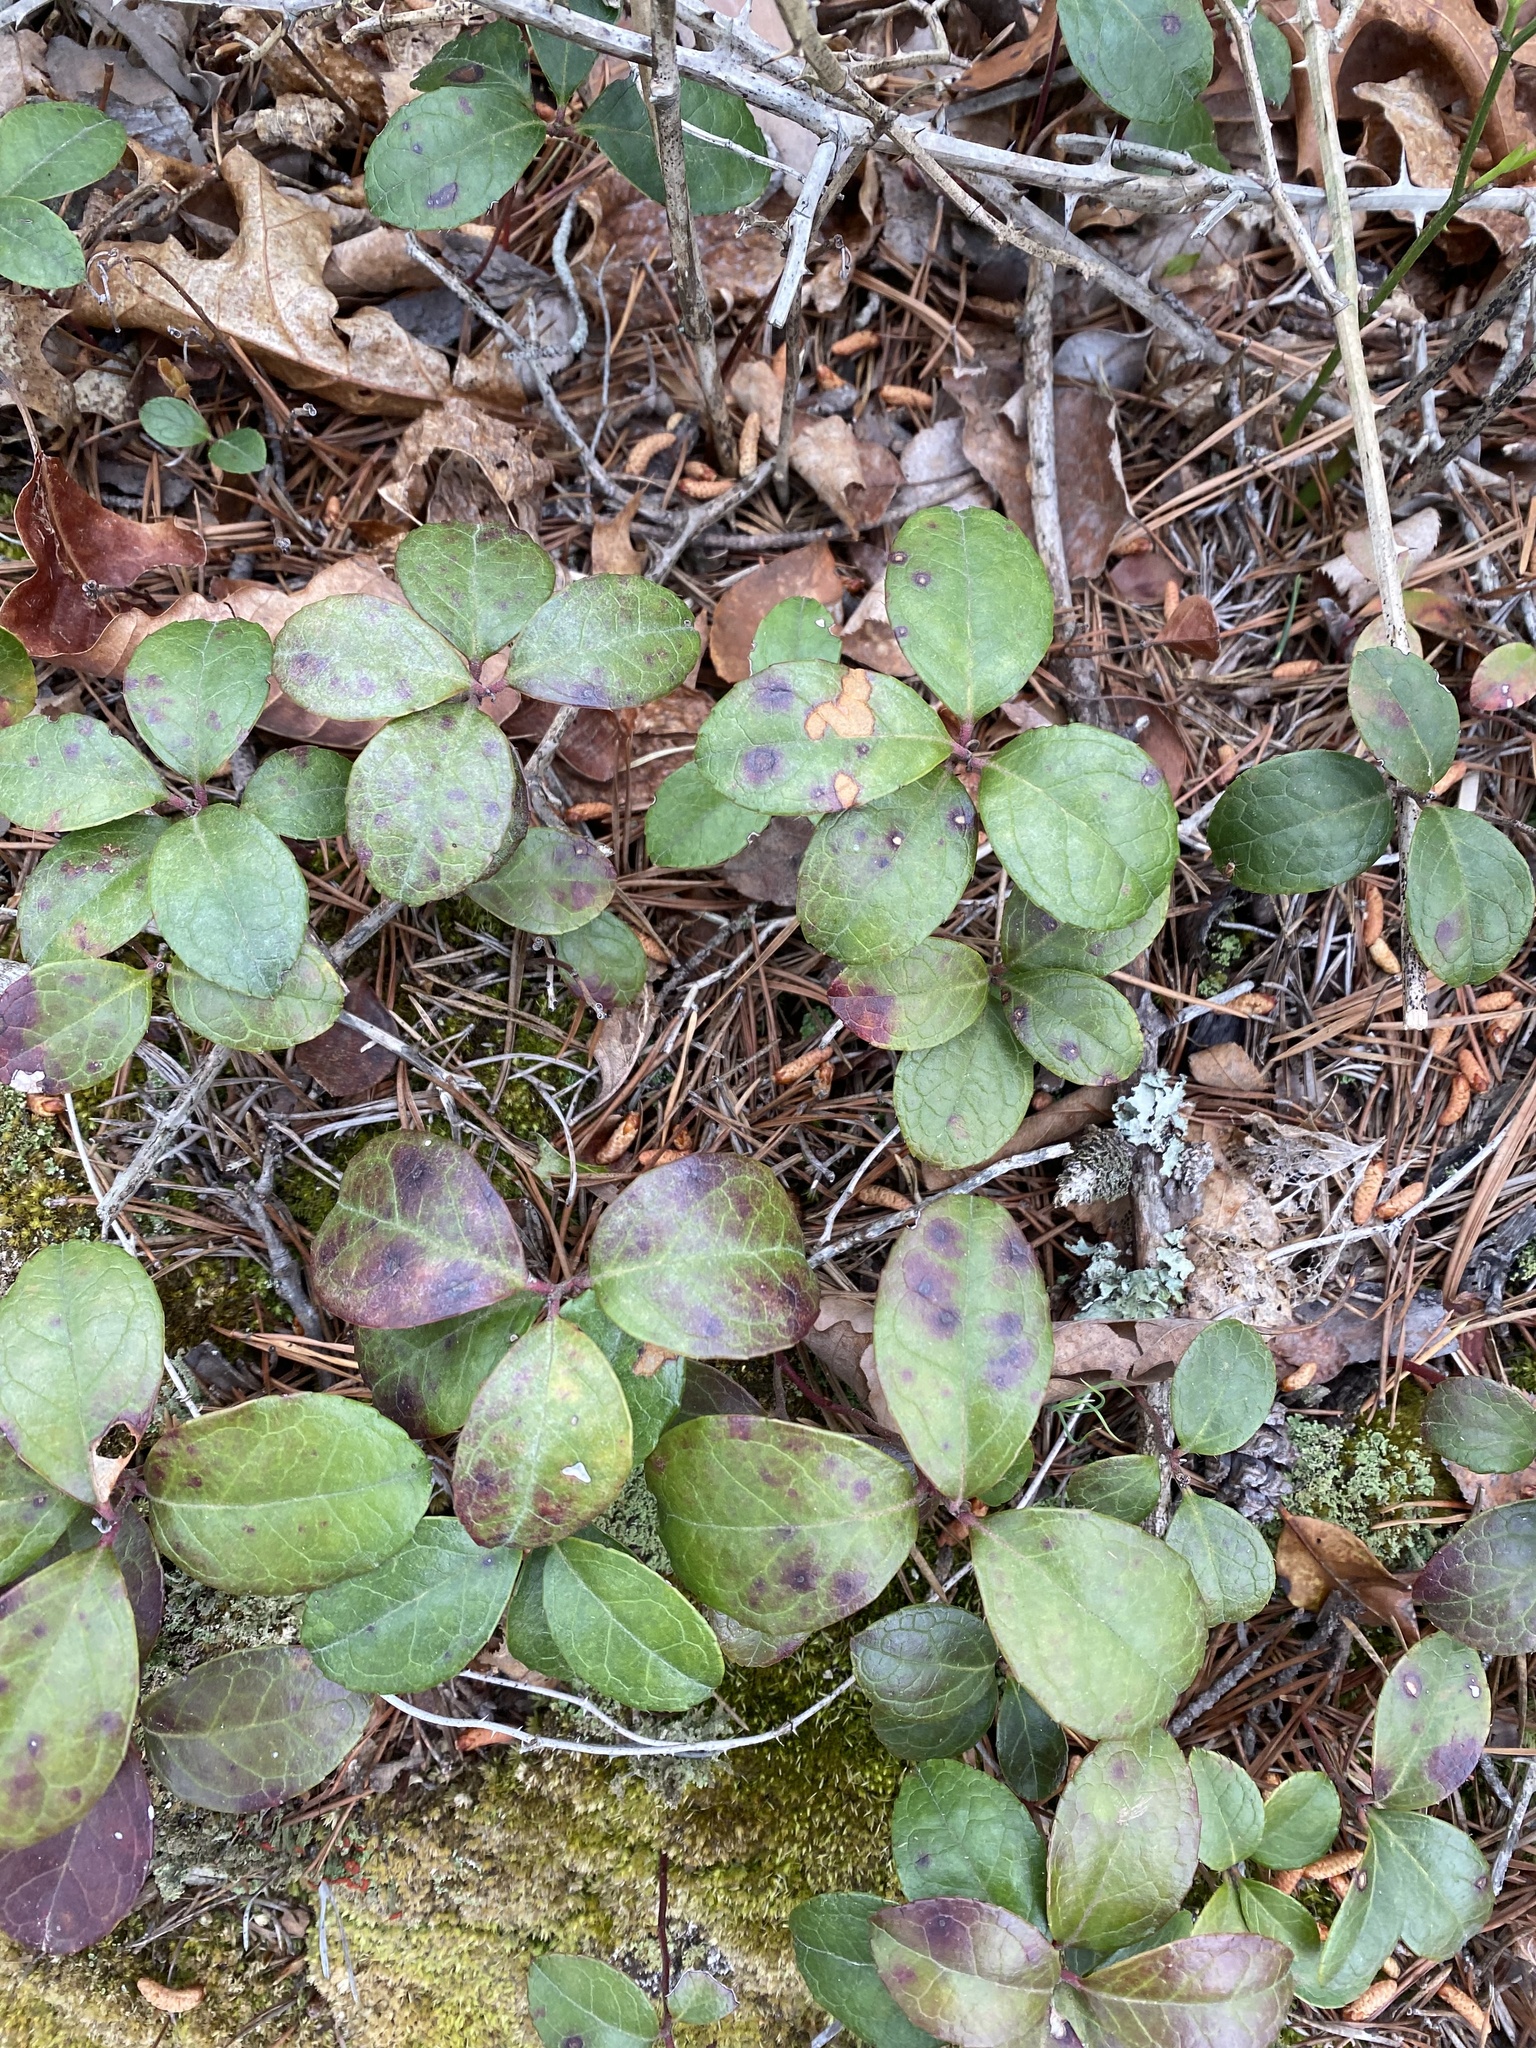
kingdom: Plantae
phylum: Tracheophyta
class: Magnoliopsida
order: Ericales
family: Ericaceae
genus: Gaultheria
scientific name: Gaultheria procumbens
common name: Checkerberry
